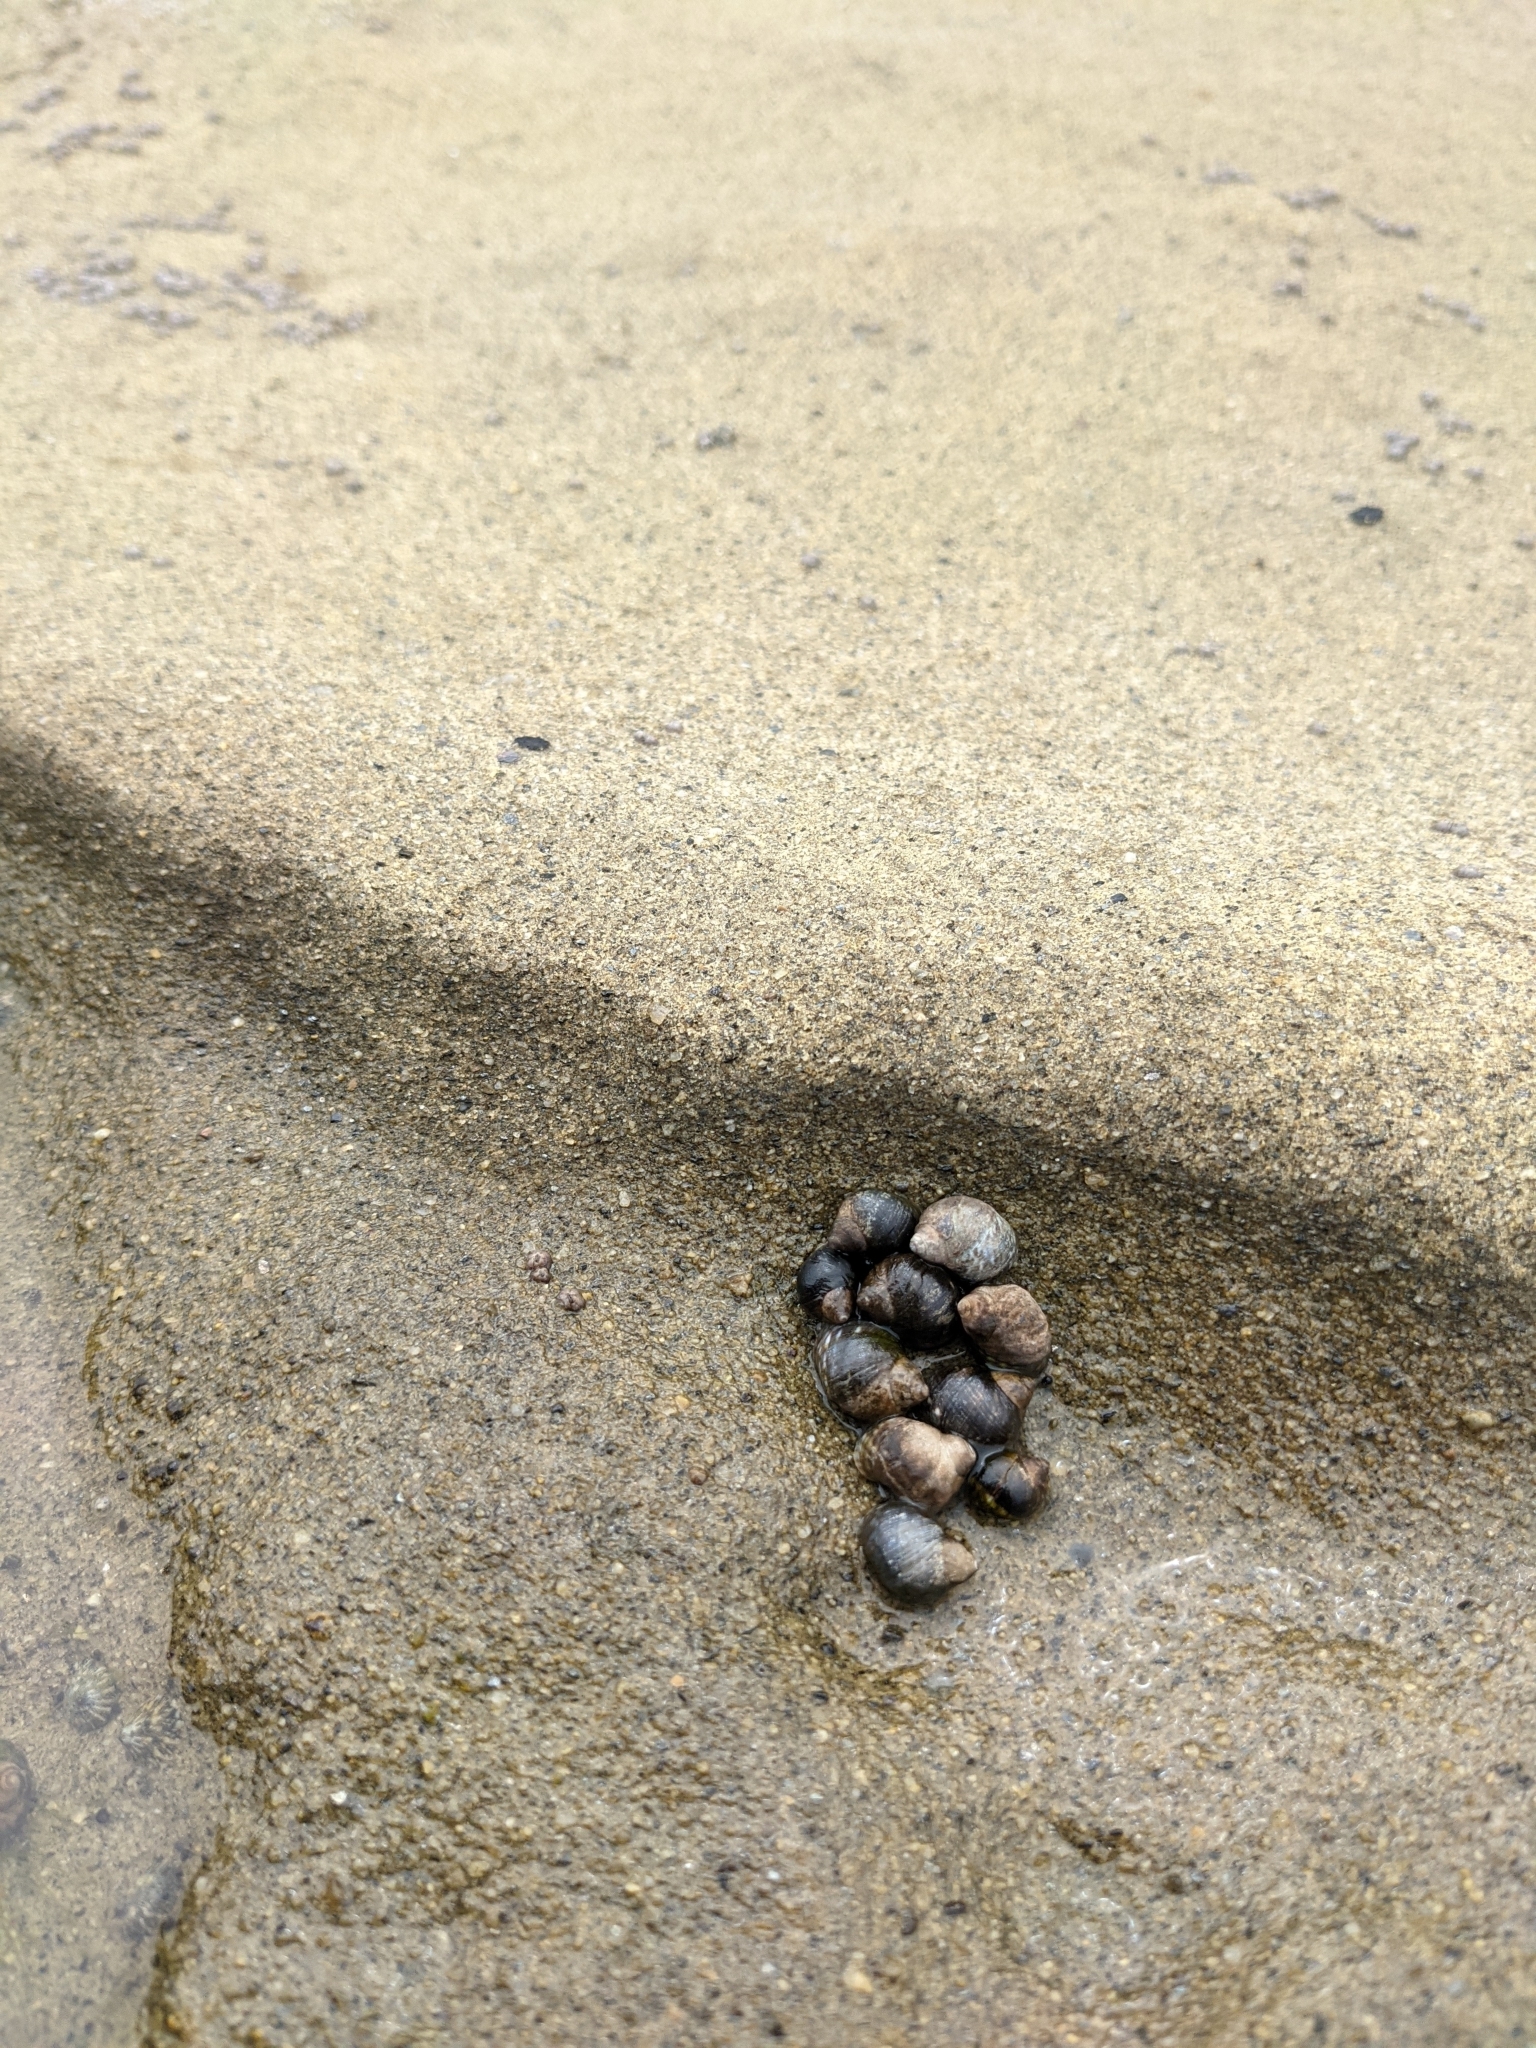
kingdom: Animalia
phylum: Mollusca
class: Gastropoda
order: Littorinimorpha
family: Littorinidae
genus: Littorina
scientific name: Littorina keenae
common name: Eroded periwinkle
